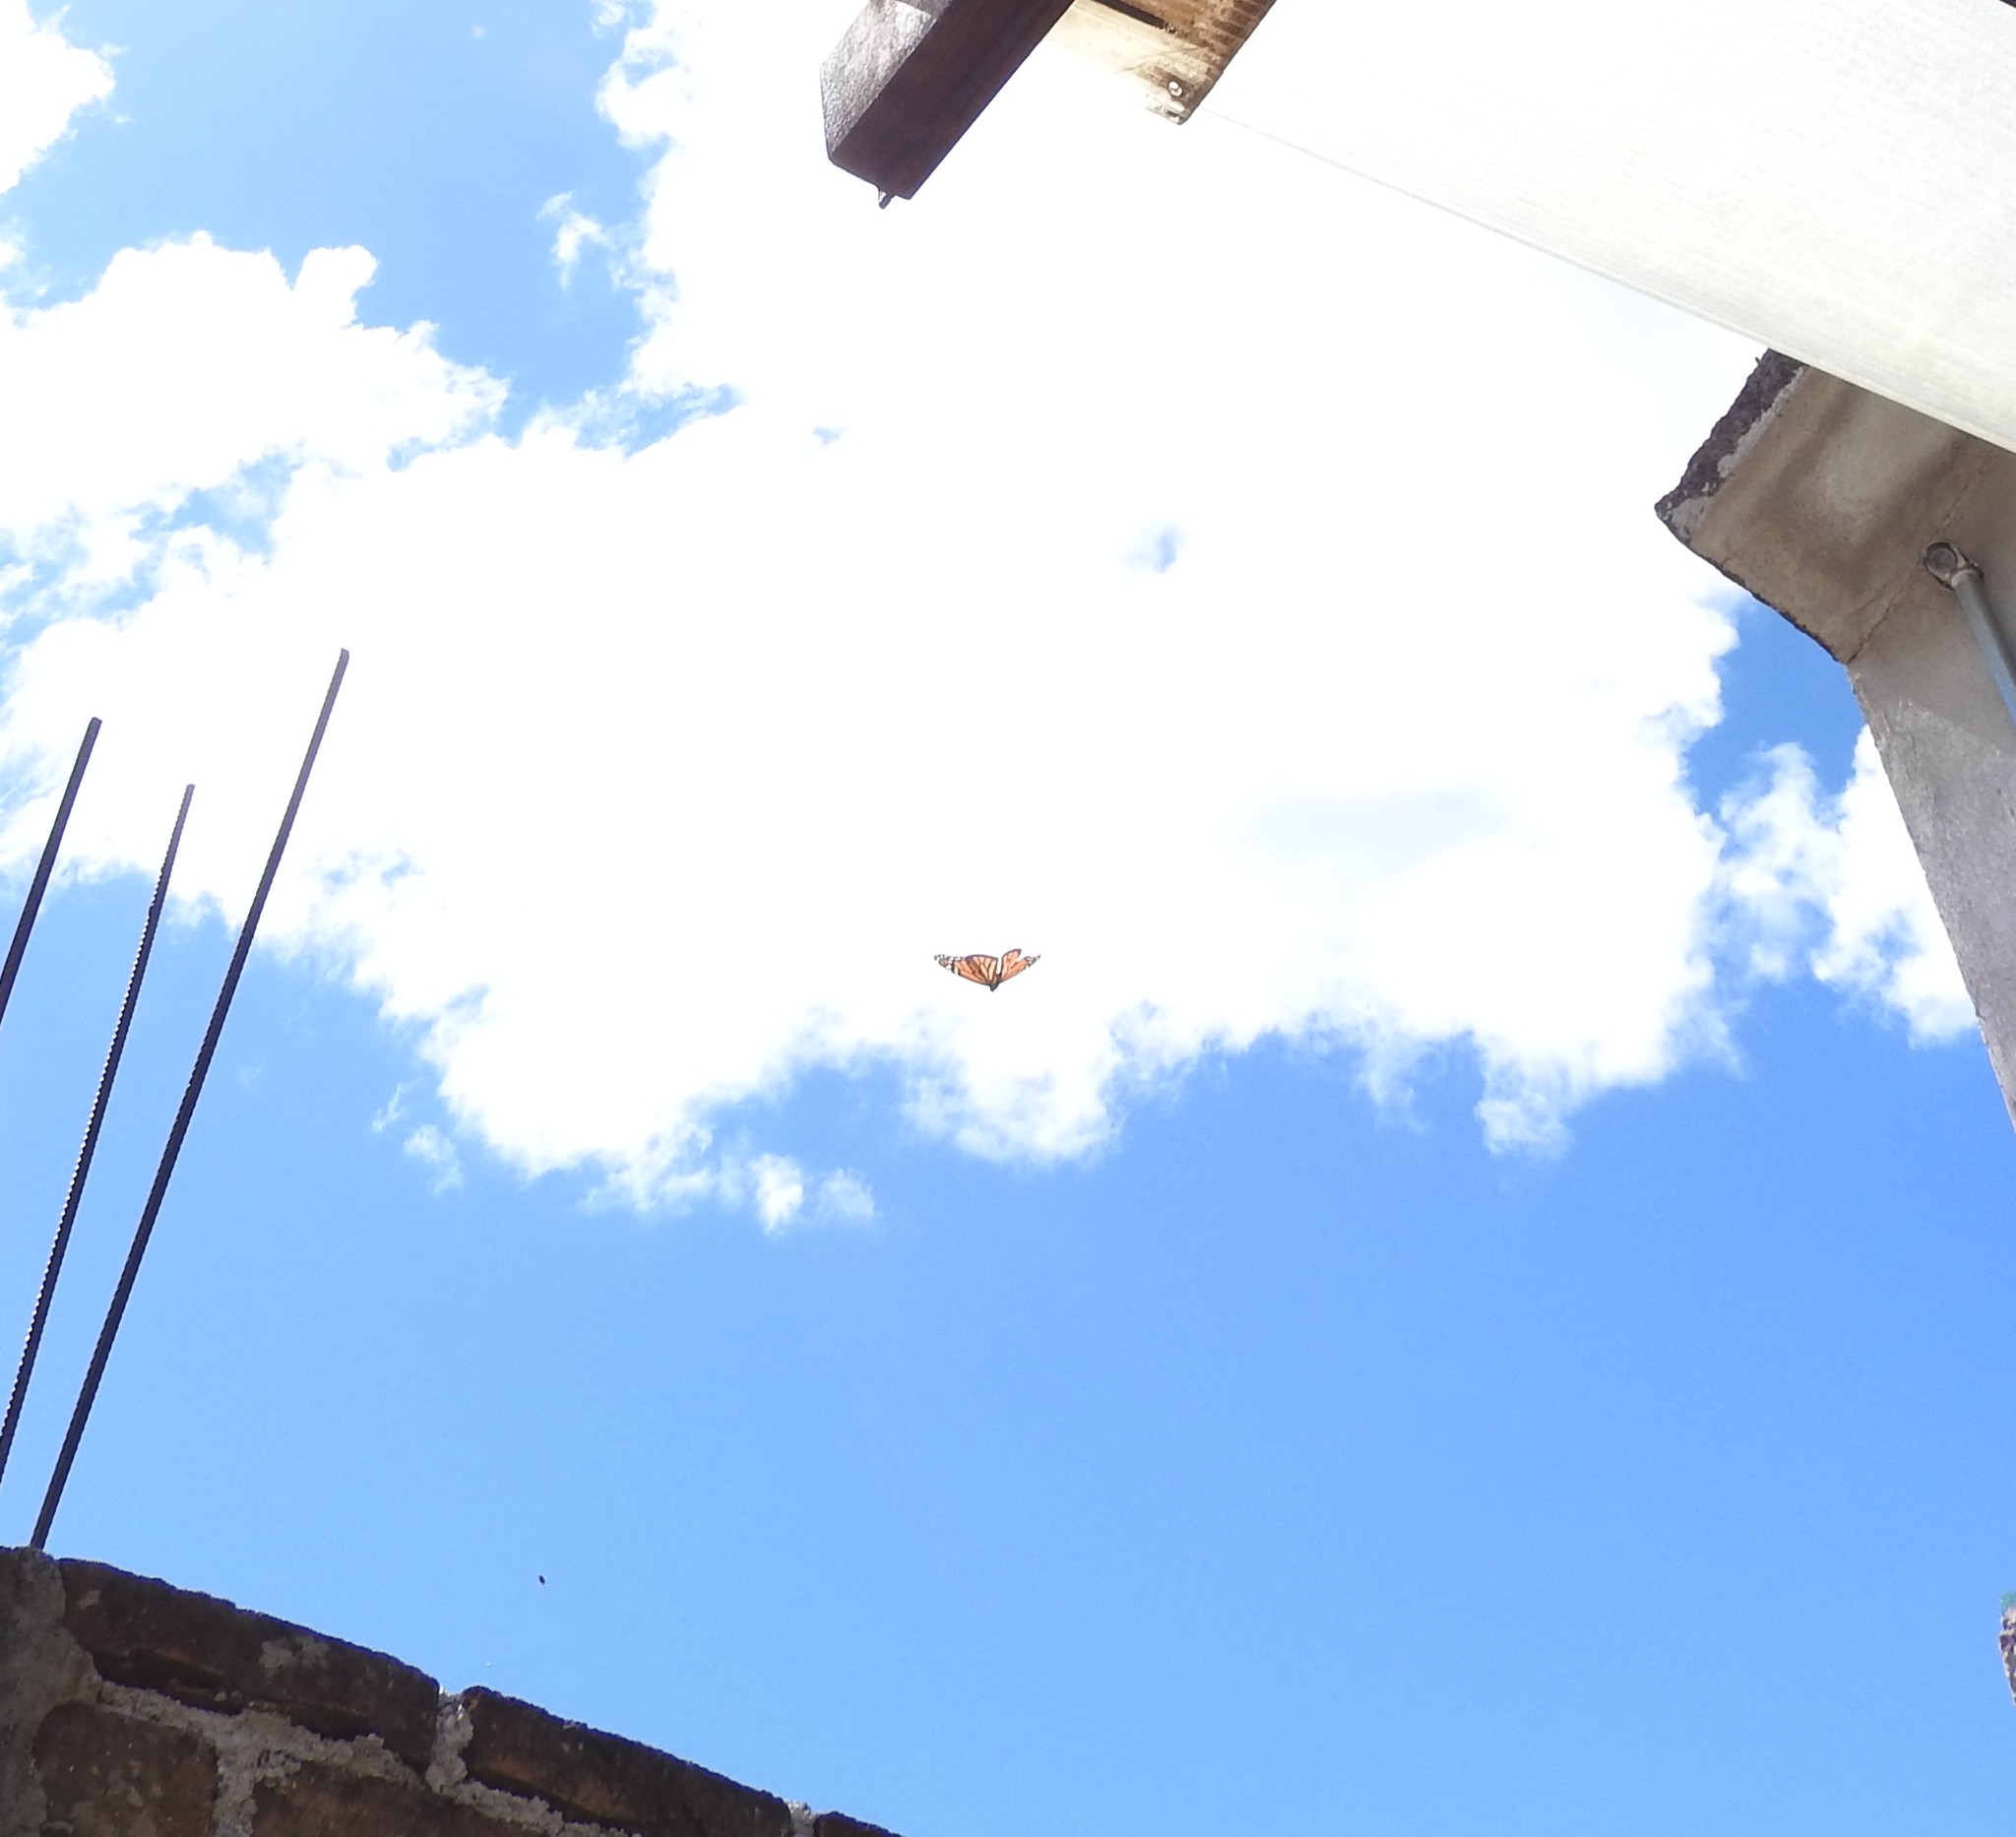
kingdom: Animalia
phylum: Arthropoda
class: Insecta
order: Lepidoptera
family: Nymphalidae
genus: Danaus
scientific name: Danaus plexippus
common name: Monarch
